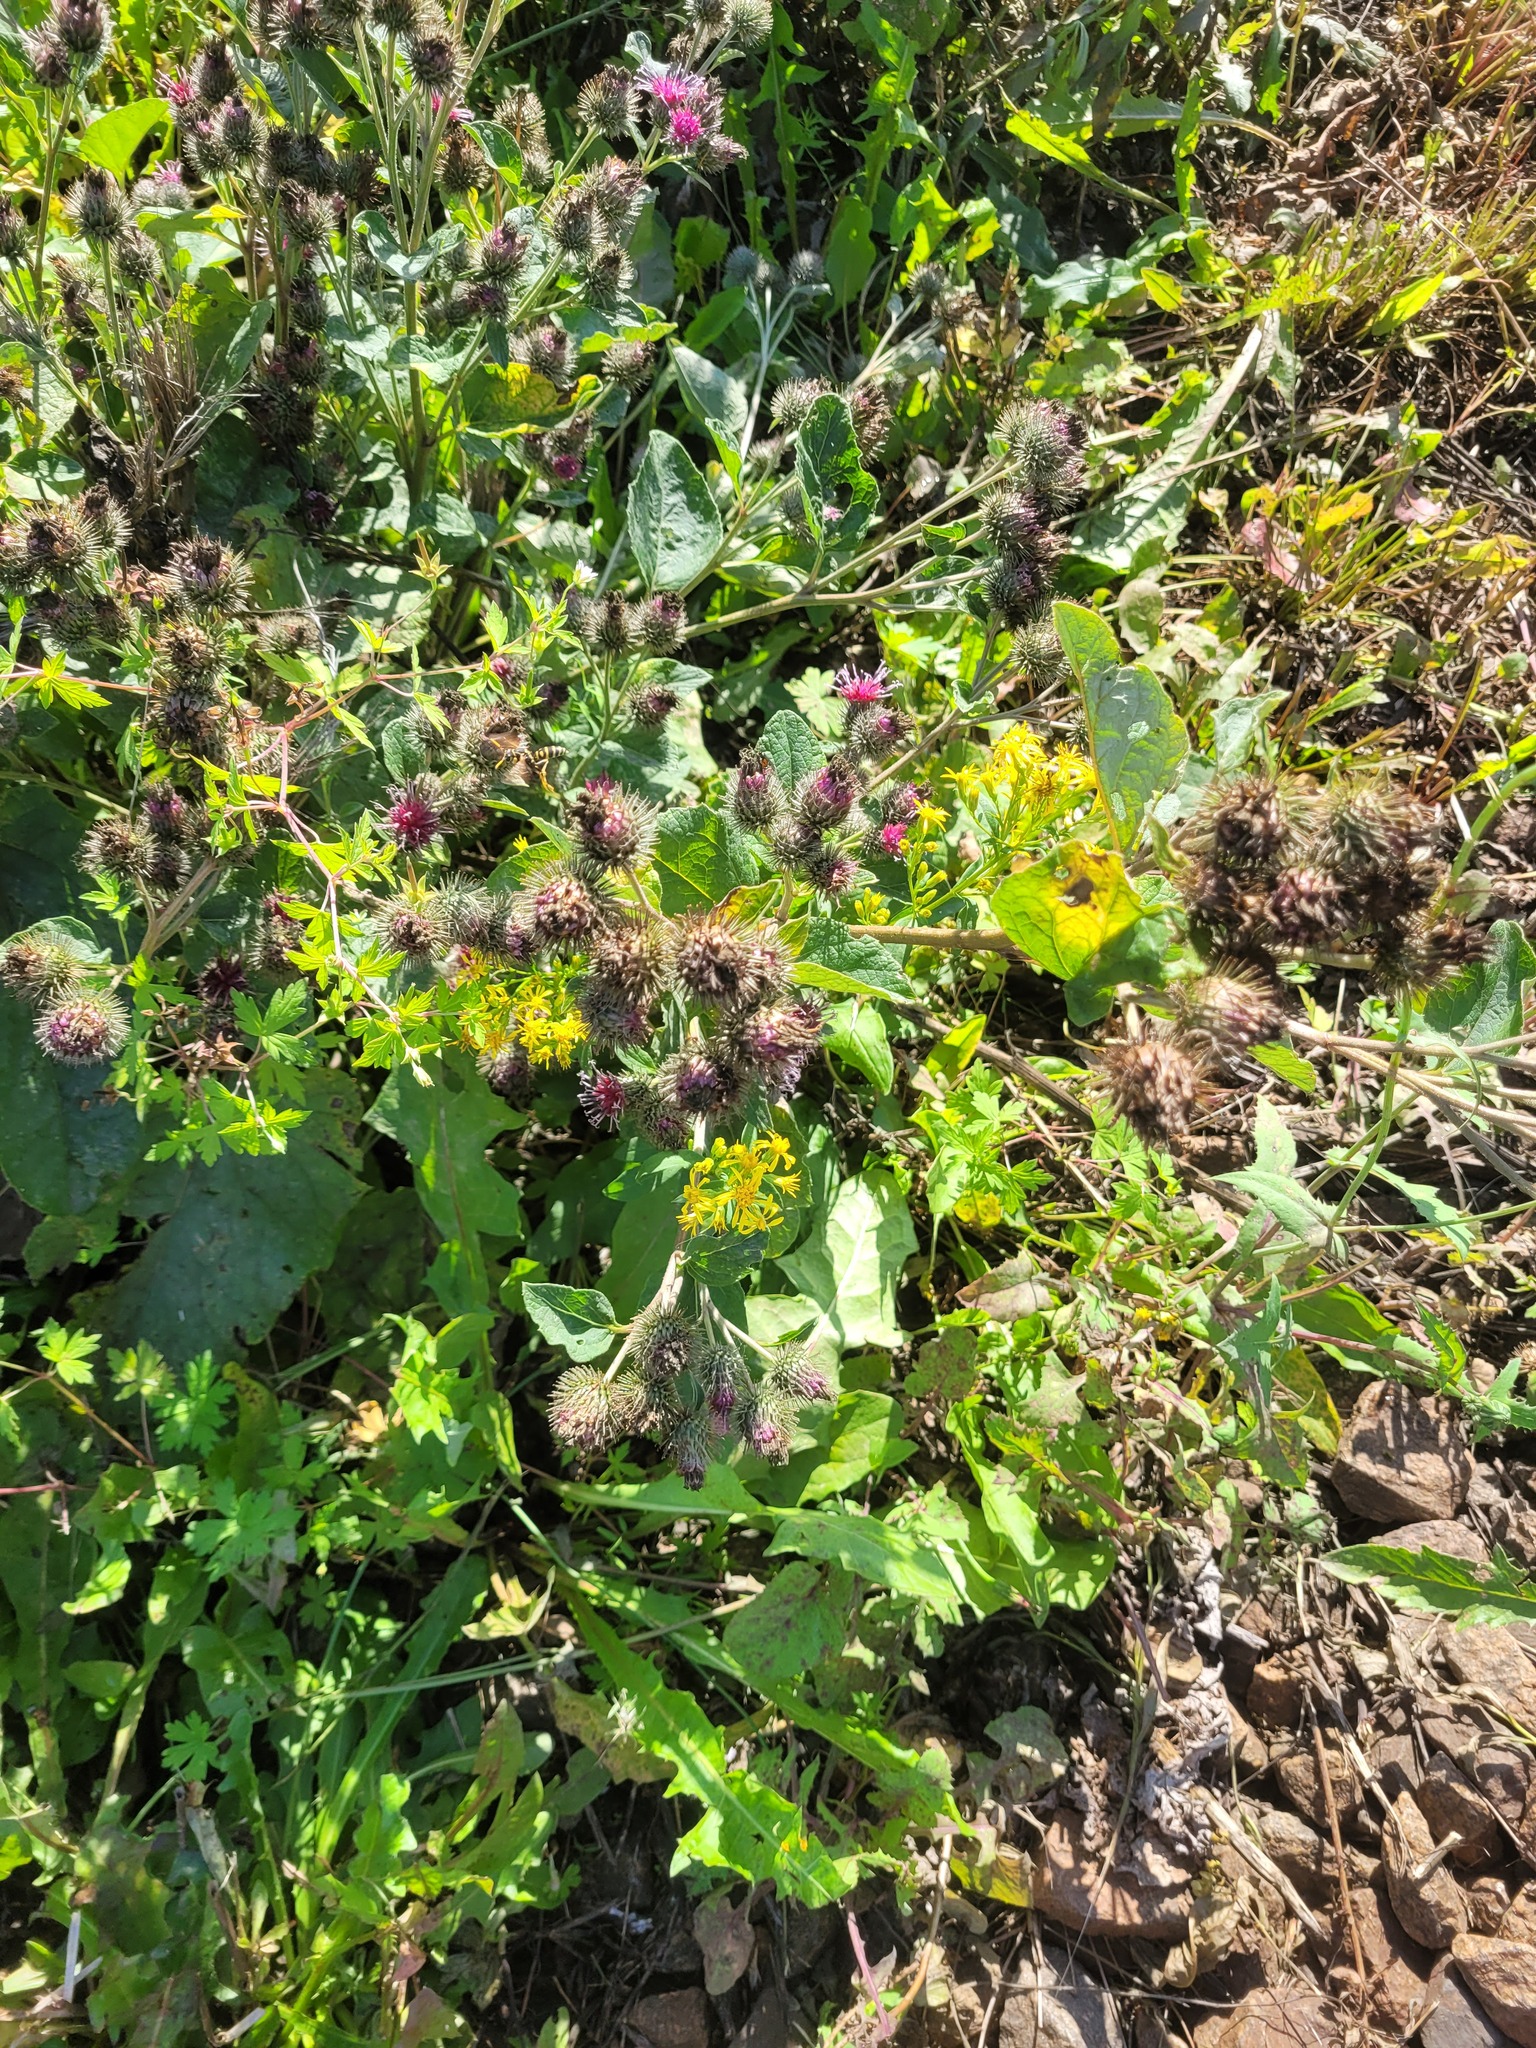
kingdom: Plantae
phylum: Tracheophyta
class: Magnoliopsida
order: Asterales
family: Asteraceae
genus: Arctium
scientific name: Arctium tomentosum
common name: Woolly burdock
